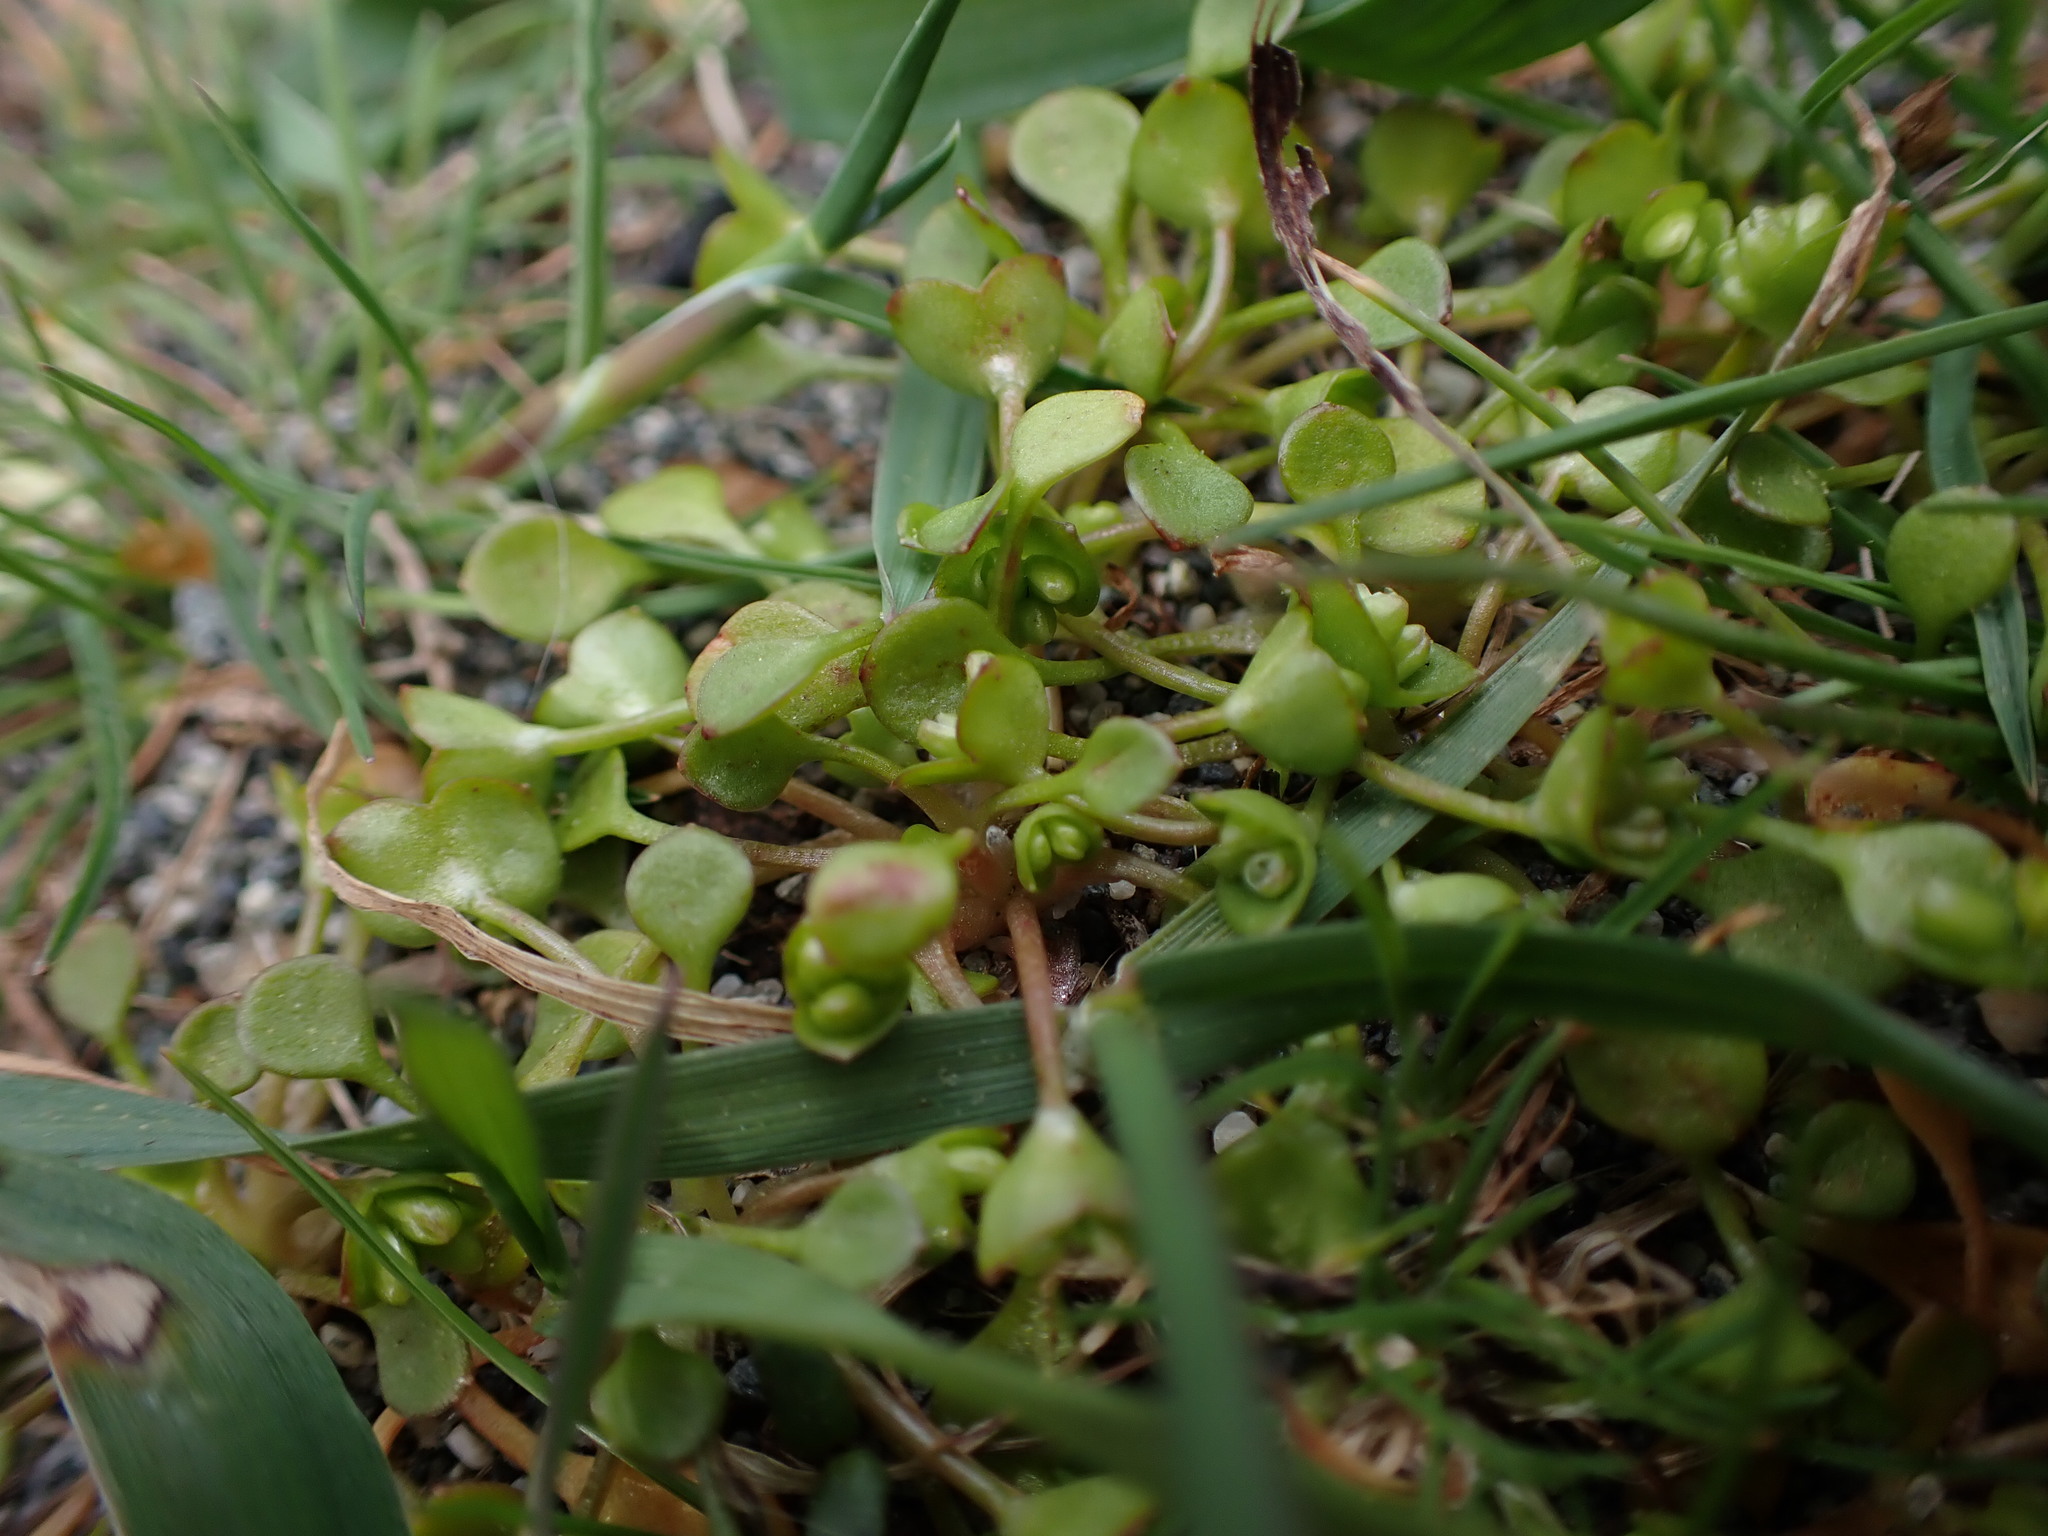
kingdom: Plantae
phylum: Tracheophyta
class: Magnoliopsida
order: Caryophyllales
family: Montiaceae
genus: Claytonia
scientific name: Claytonia rubra
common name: Erubescent miner's-lettuce
